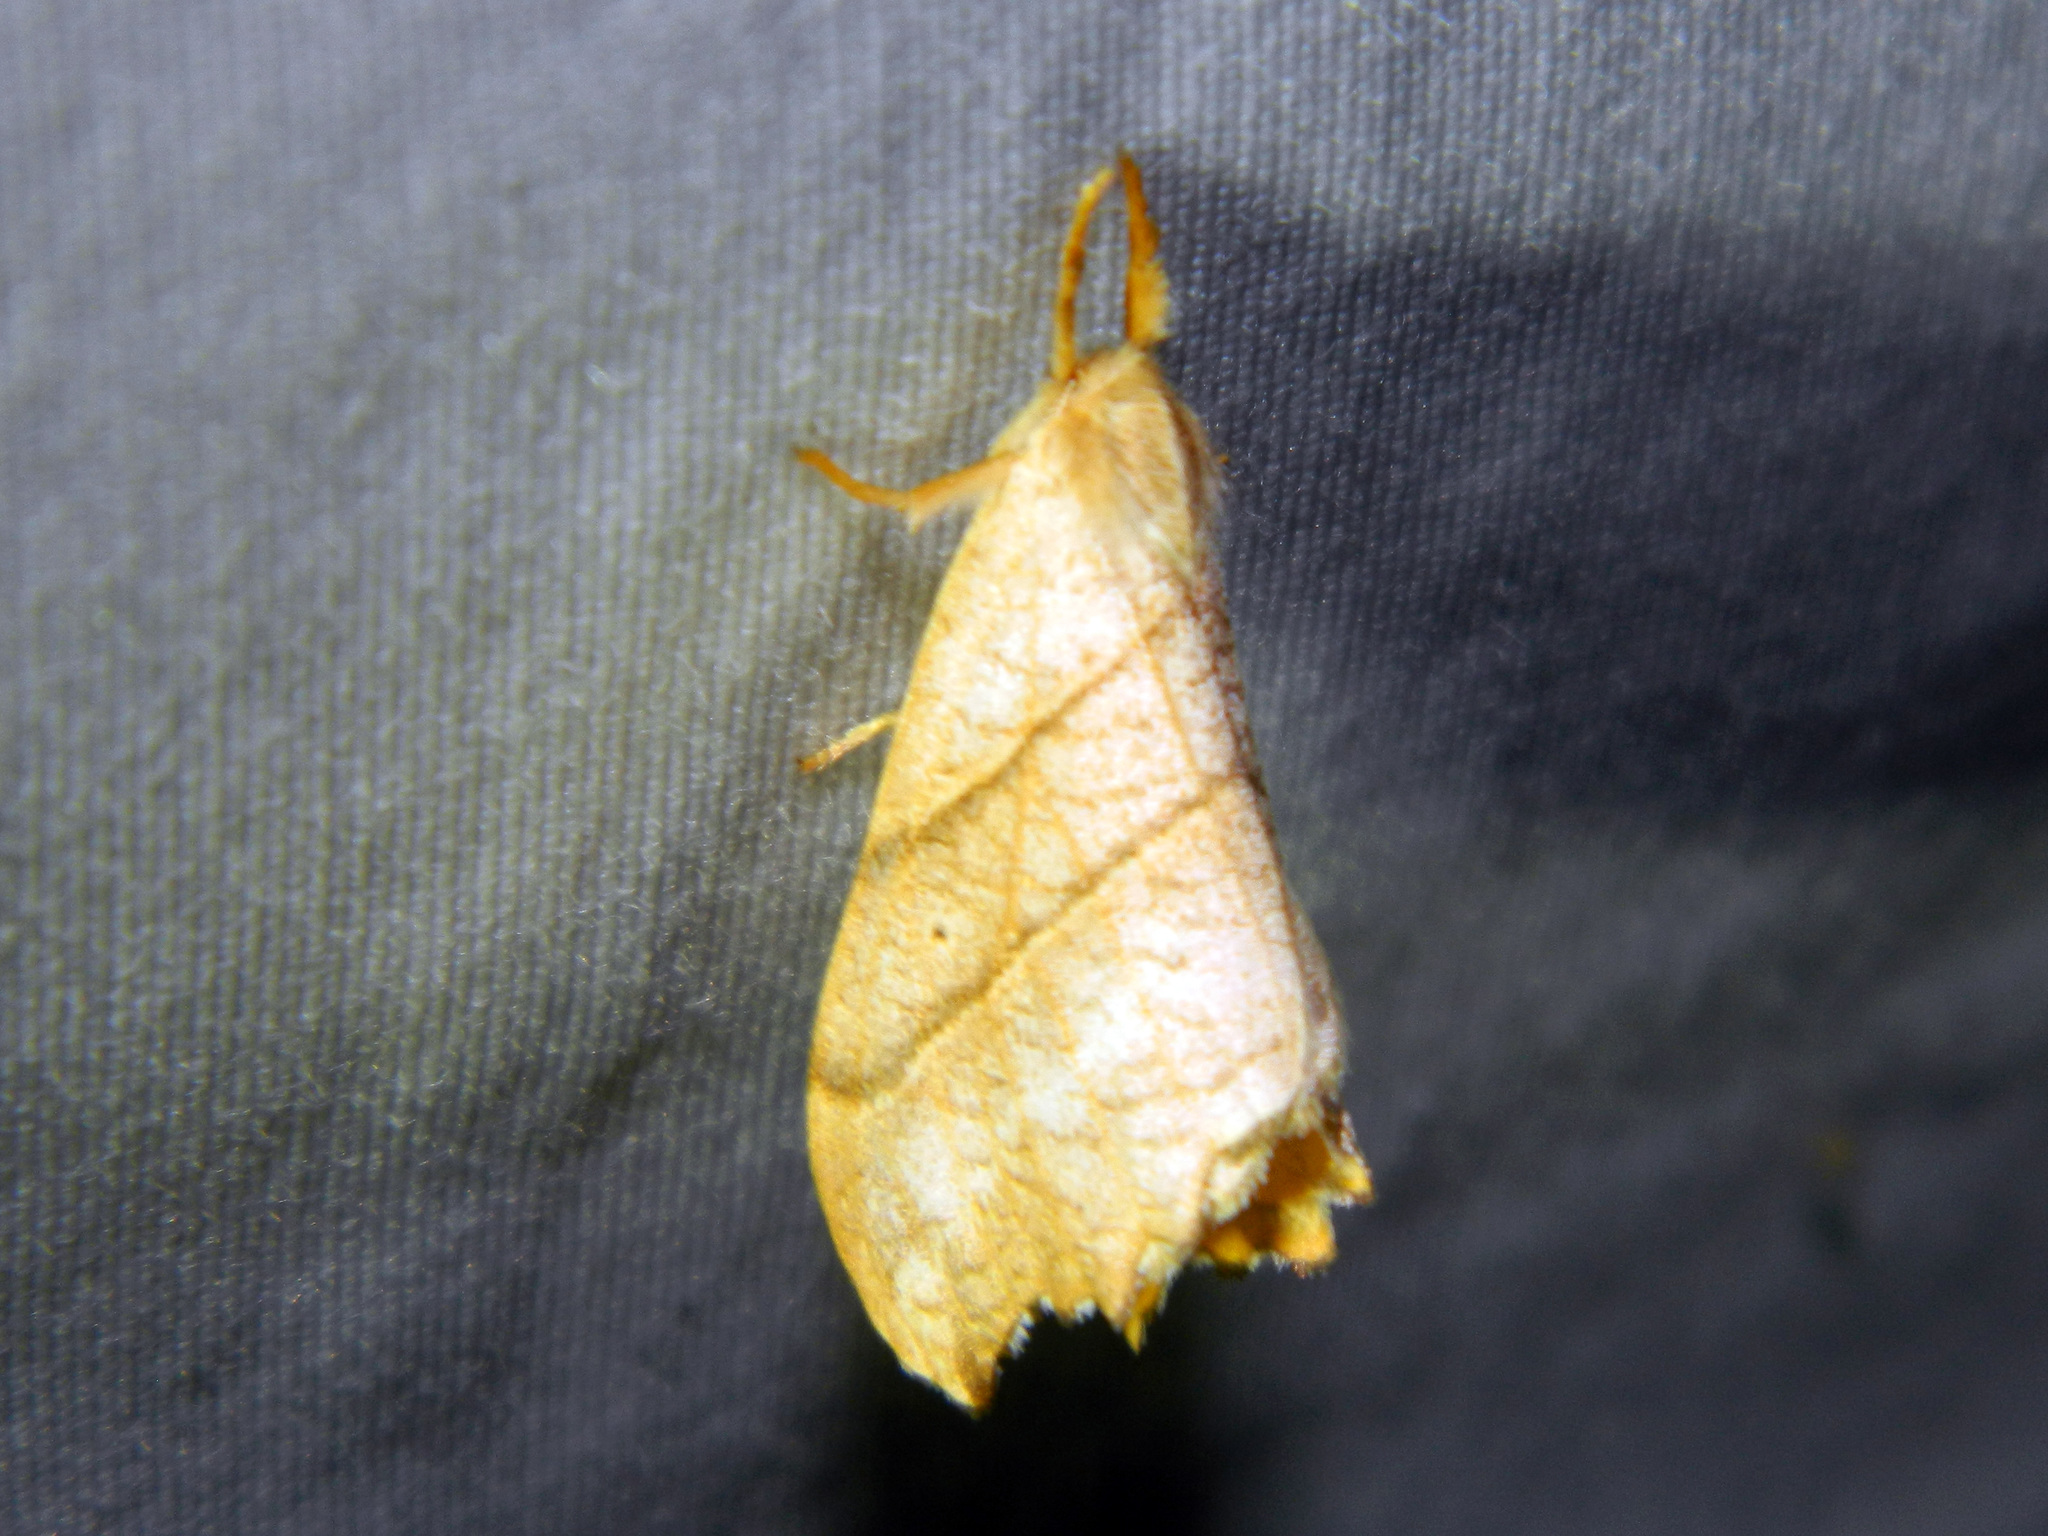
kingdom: Animalia
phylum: Arthropoda
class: Insecta
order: Lepidoptera
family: Drepanidae
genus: Falcaria
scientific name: Falcaria bilineata
